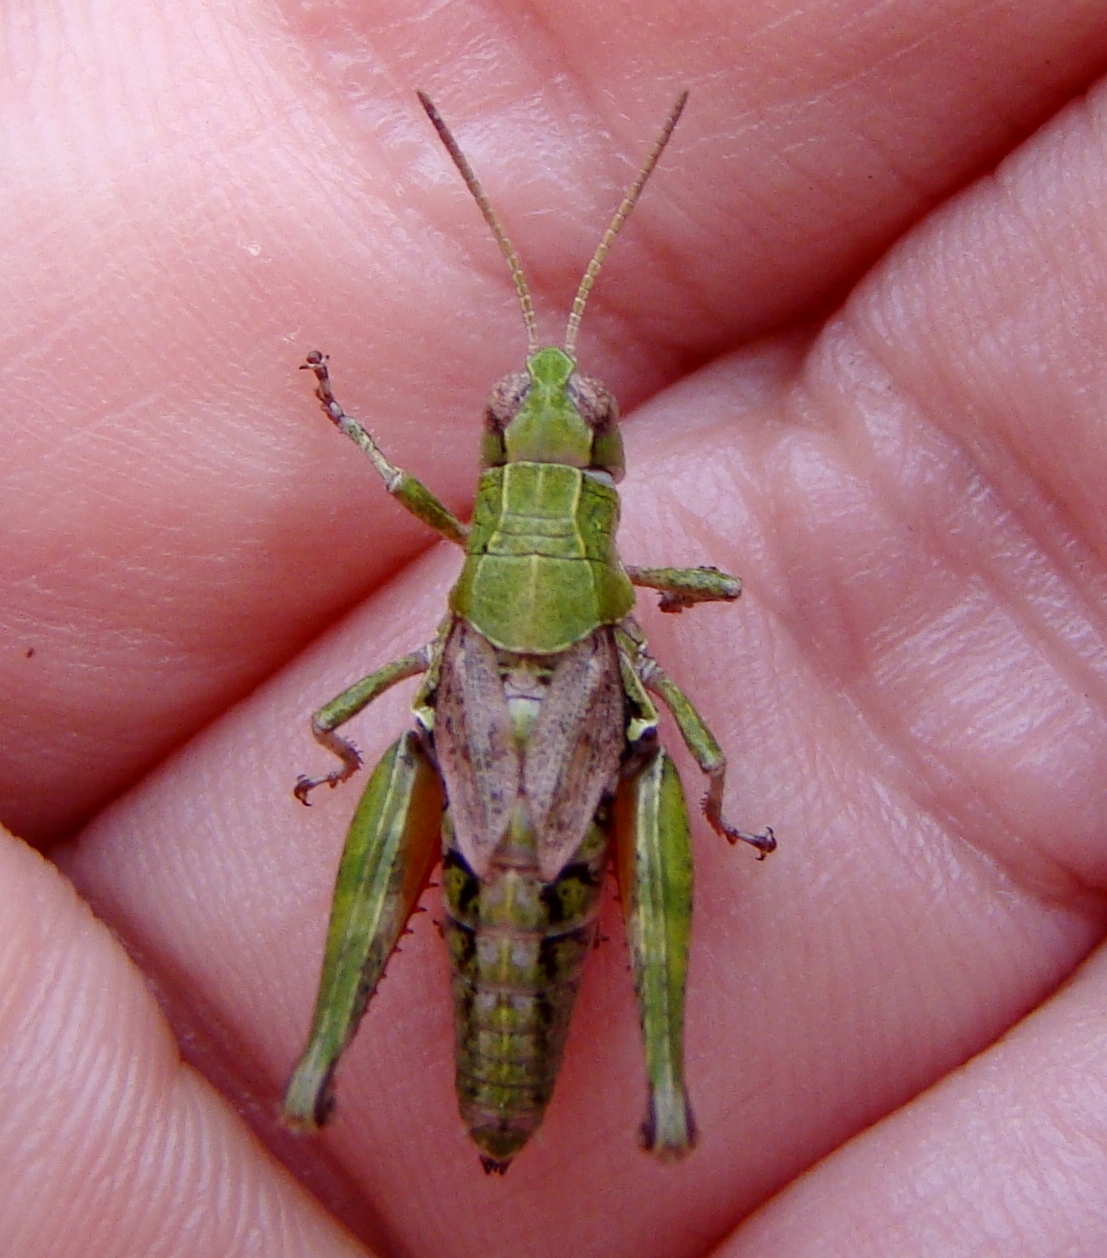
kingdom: Animalia
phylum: Arthropoda
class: Insecta
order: Orthoptera
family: Acrididae
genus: Phaulacridium
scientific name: Phaulacridium marginale
